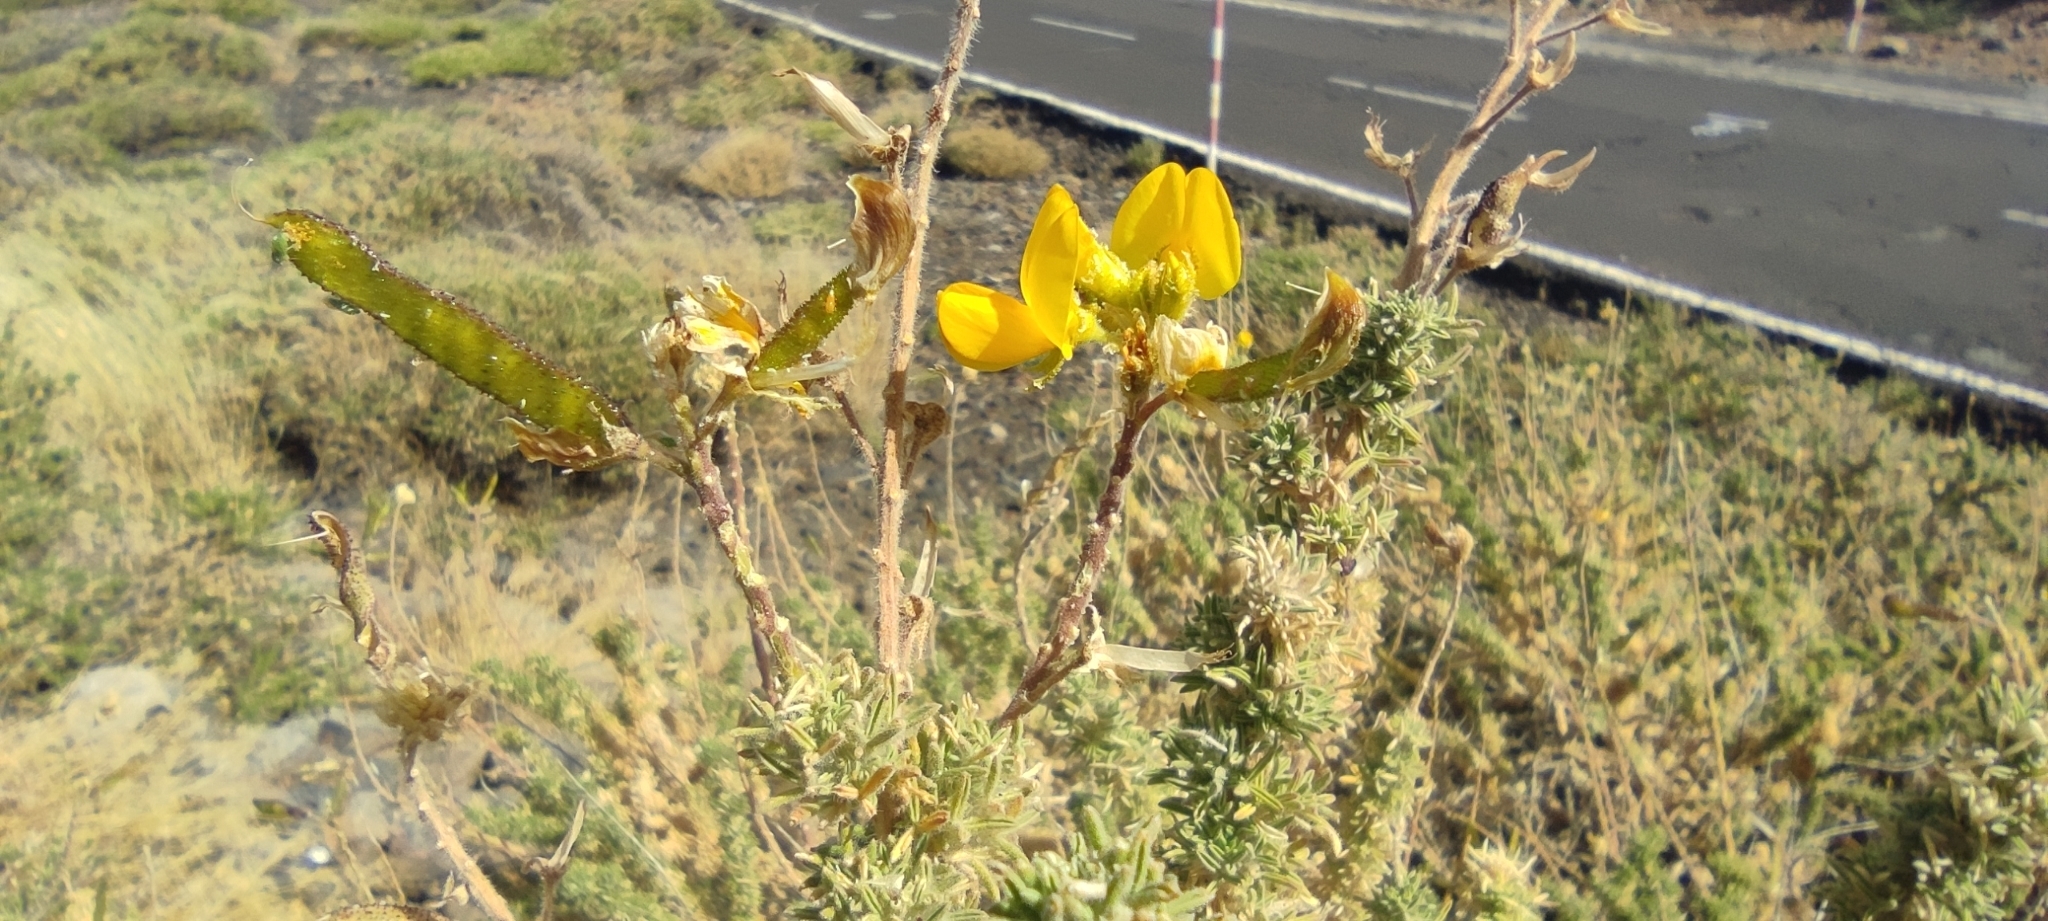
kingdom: Plantae
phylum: Tracheophyta
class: Magnoliopsida
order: Fabales
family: Fabaceae
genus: Adenocarpus
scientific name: Adenocarpus viscosus
